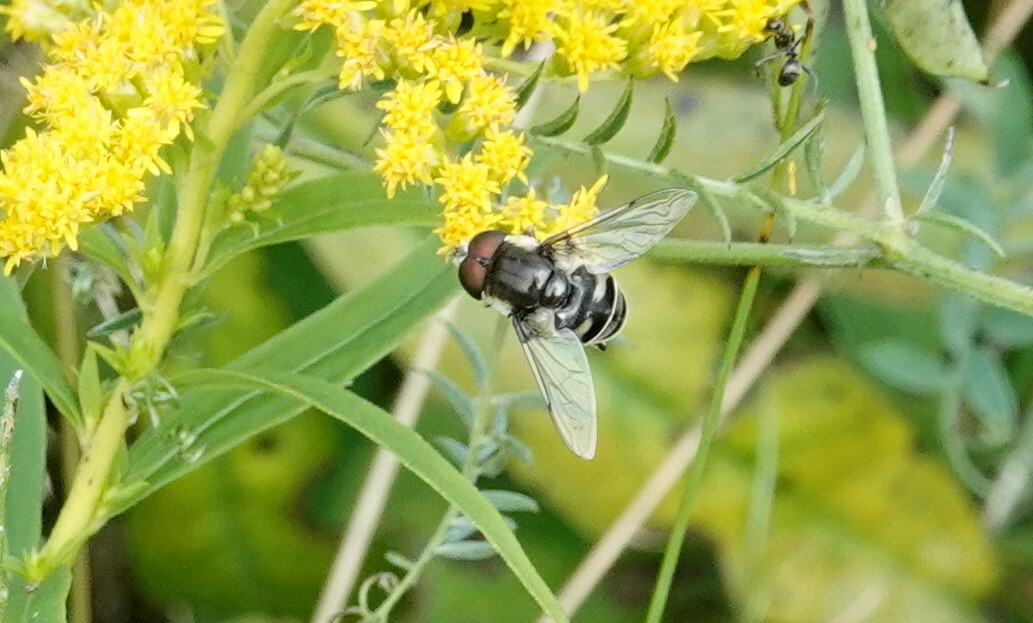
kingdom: Animalia
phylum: Arthropoda
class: Insecta
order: Diptera
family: Syrphidae
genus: Eristalis
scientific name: Eristalis dimidiata
